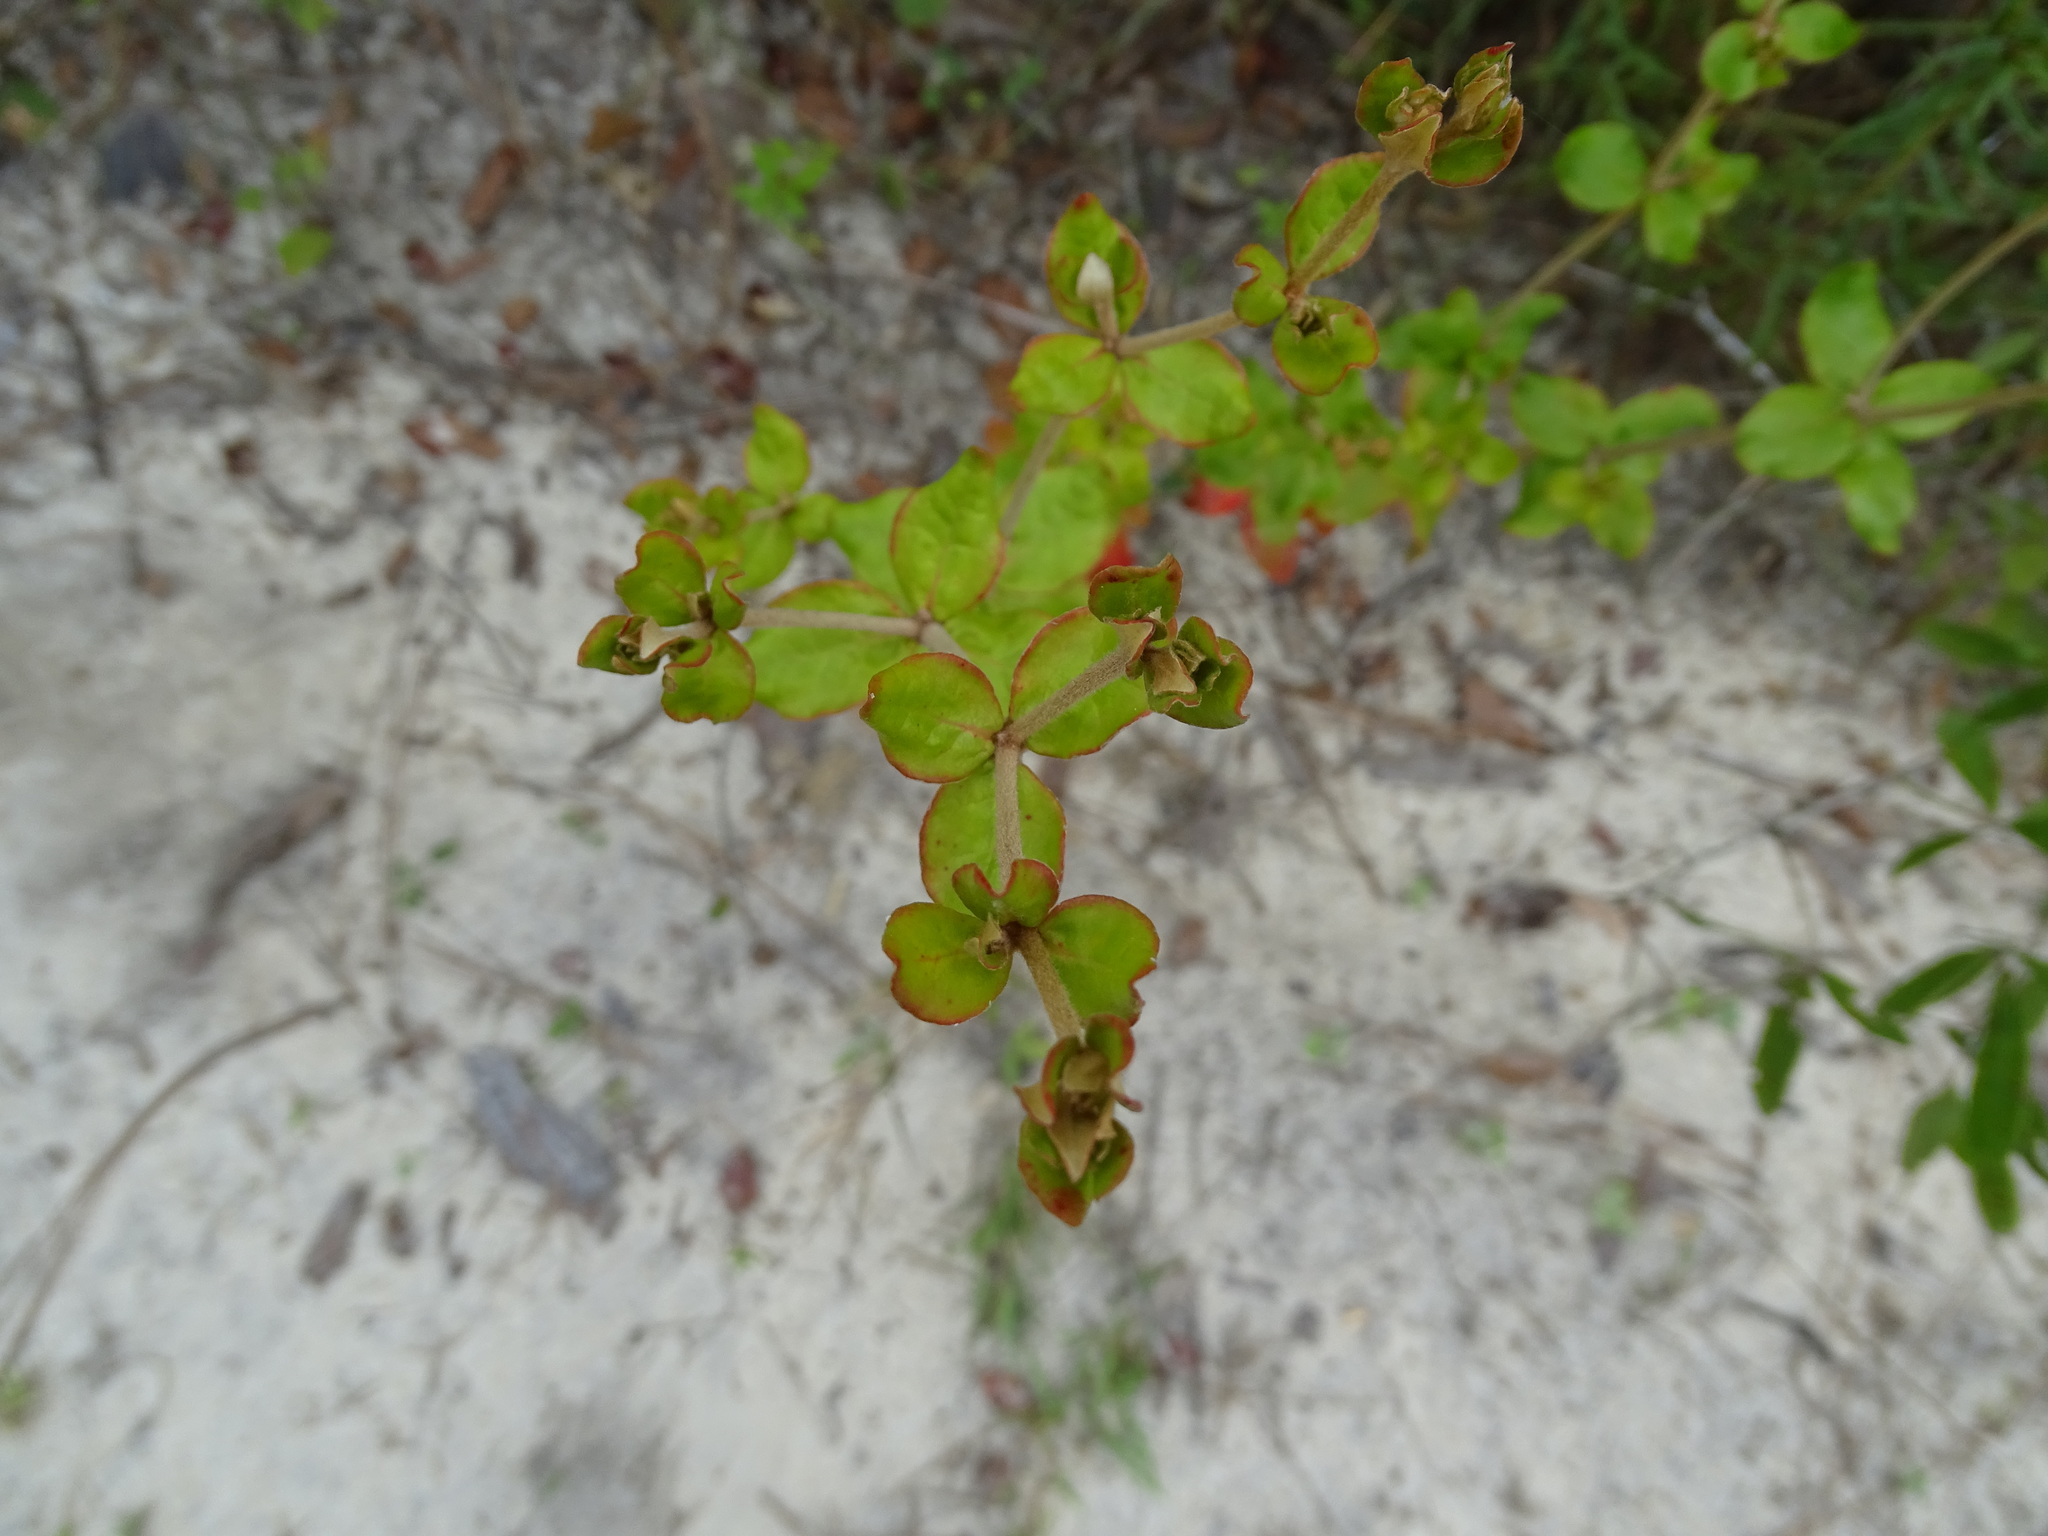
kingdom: Plantae
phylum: Tracheophyta
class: Magnoliopsida
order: Caryophyllales
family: Polygonaceae
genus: Eriogonum
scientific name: Eriogonum tomentosum
